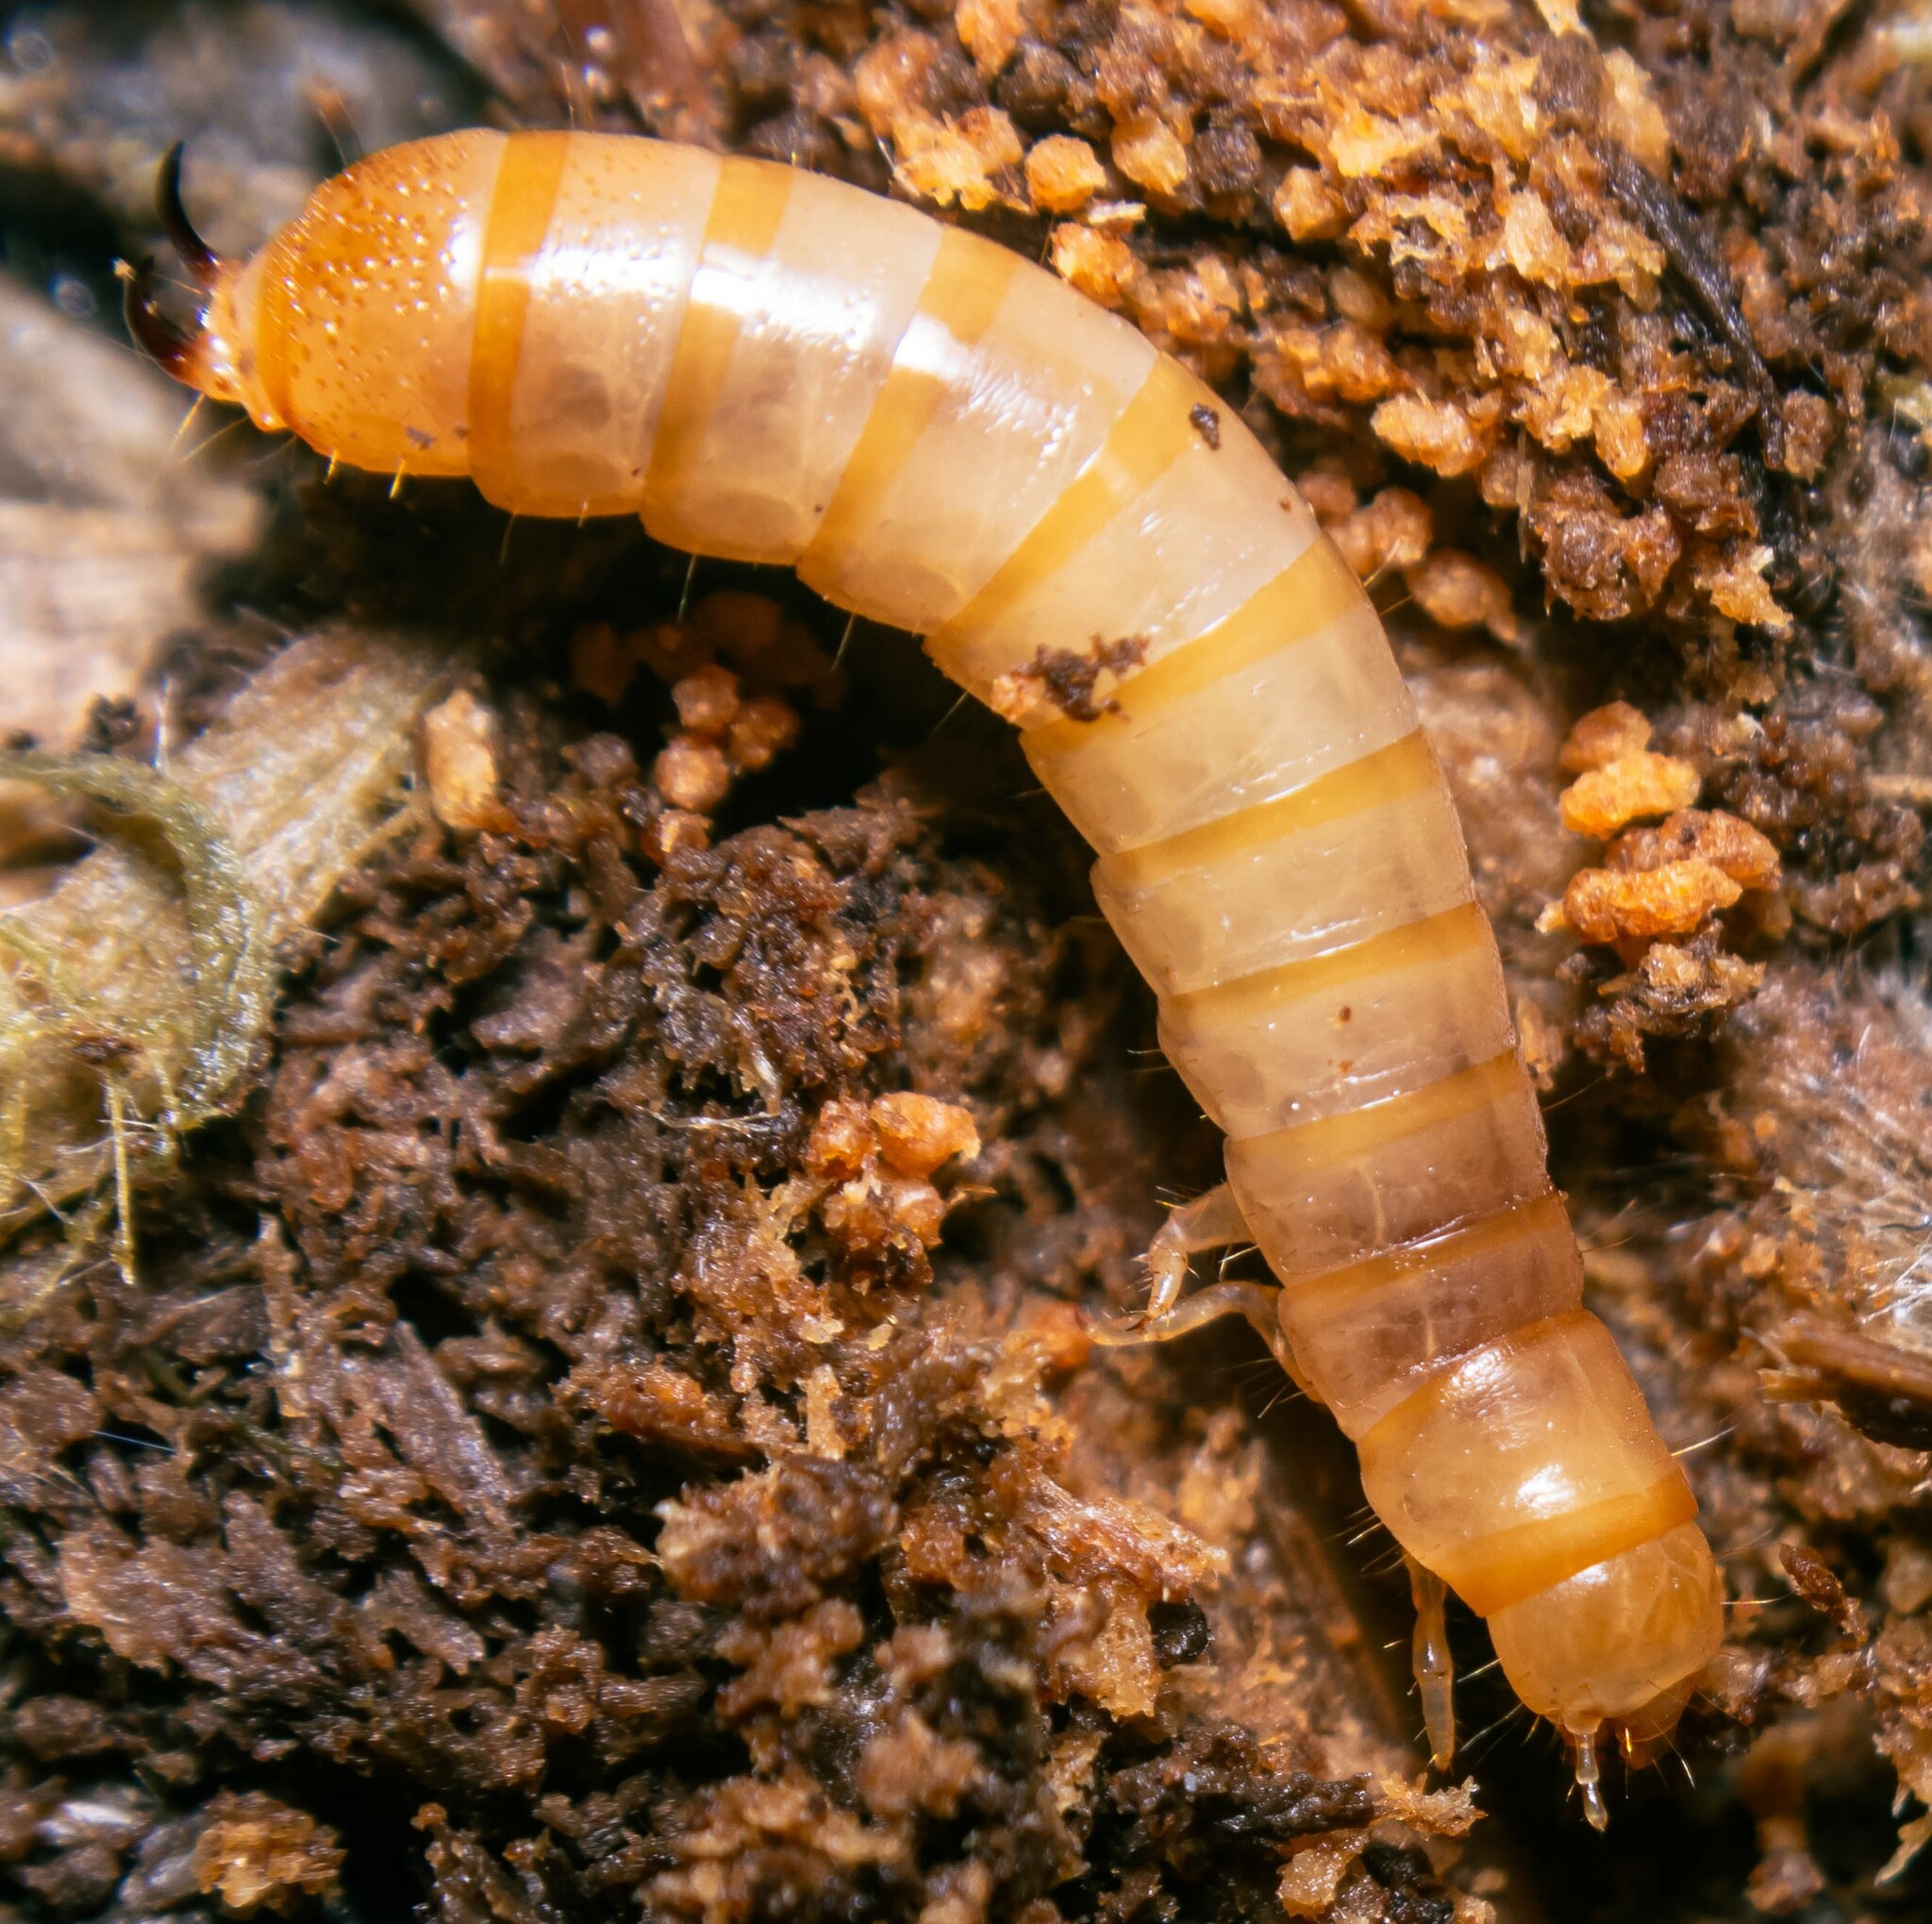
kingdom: Animalia
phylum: Arthropoda
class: Insecta
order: Coleoptera
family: Tenebrionidae
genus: Nalassus
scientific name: Nalassus laevioctostriatus
